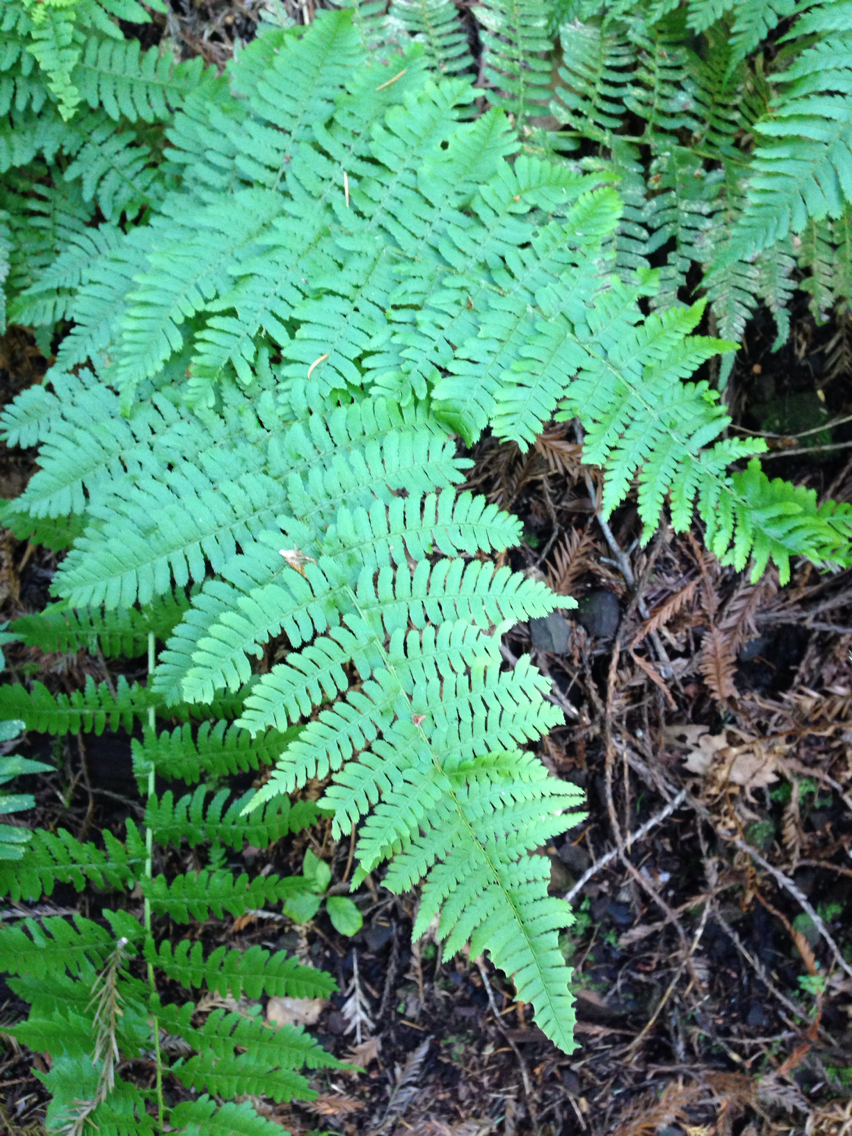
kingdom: Plantae
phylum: Tracheophyta
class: Polypodiopsida
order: Polypodiales
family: Dryopteridaceae
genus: Dryopteris
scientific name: Dryopteris arguta
